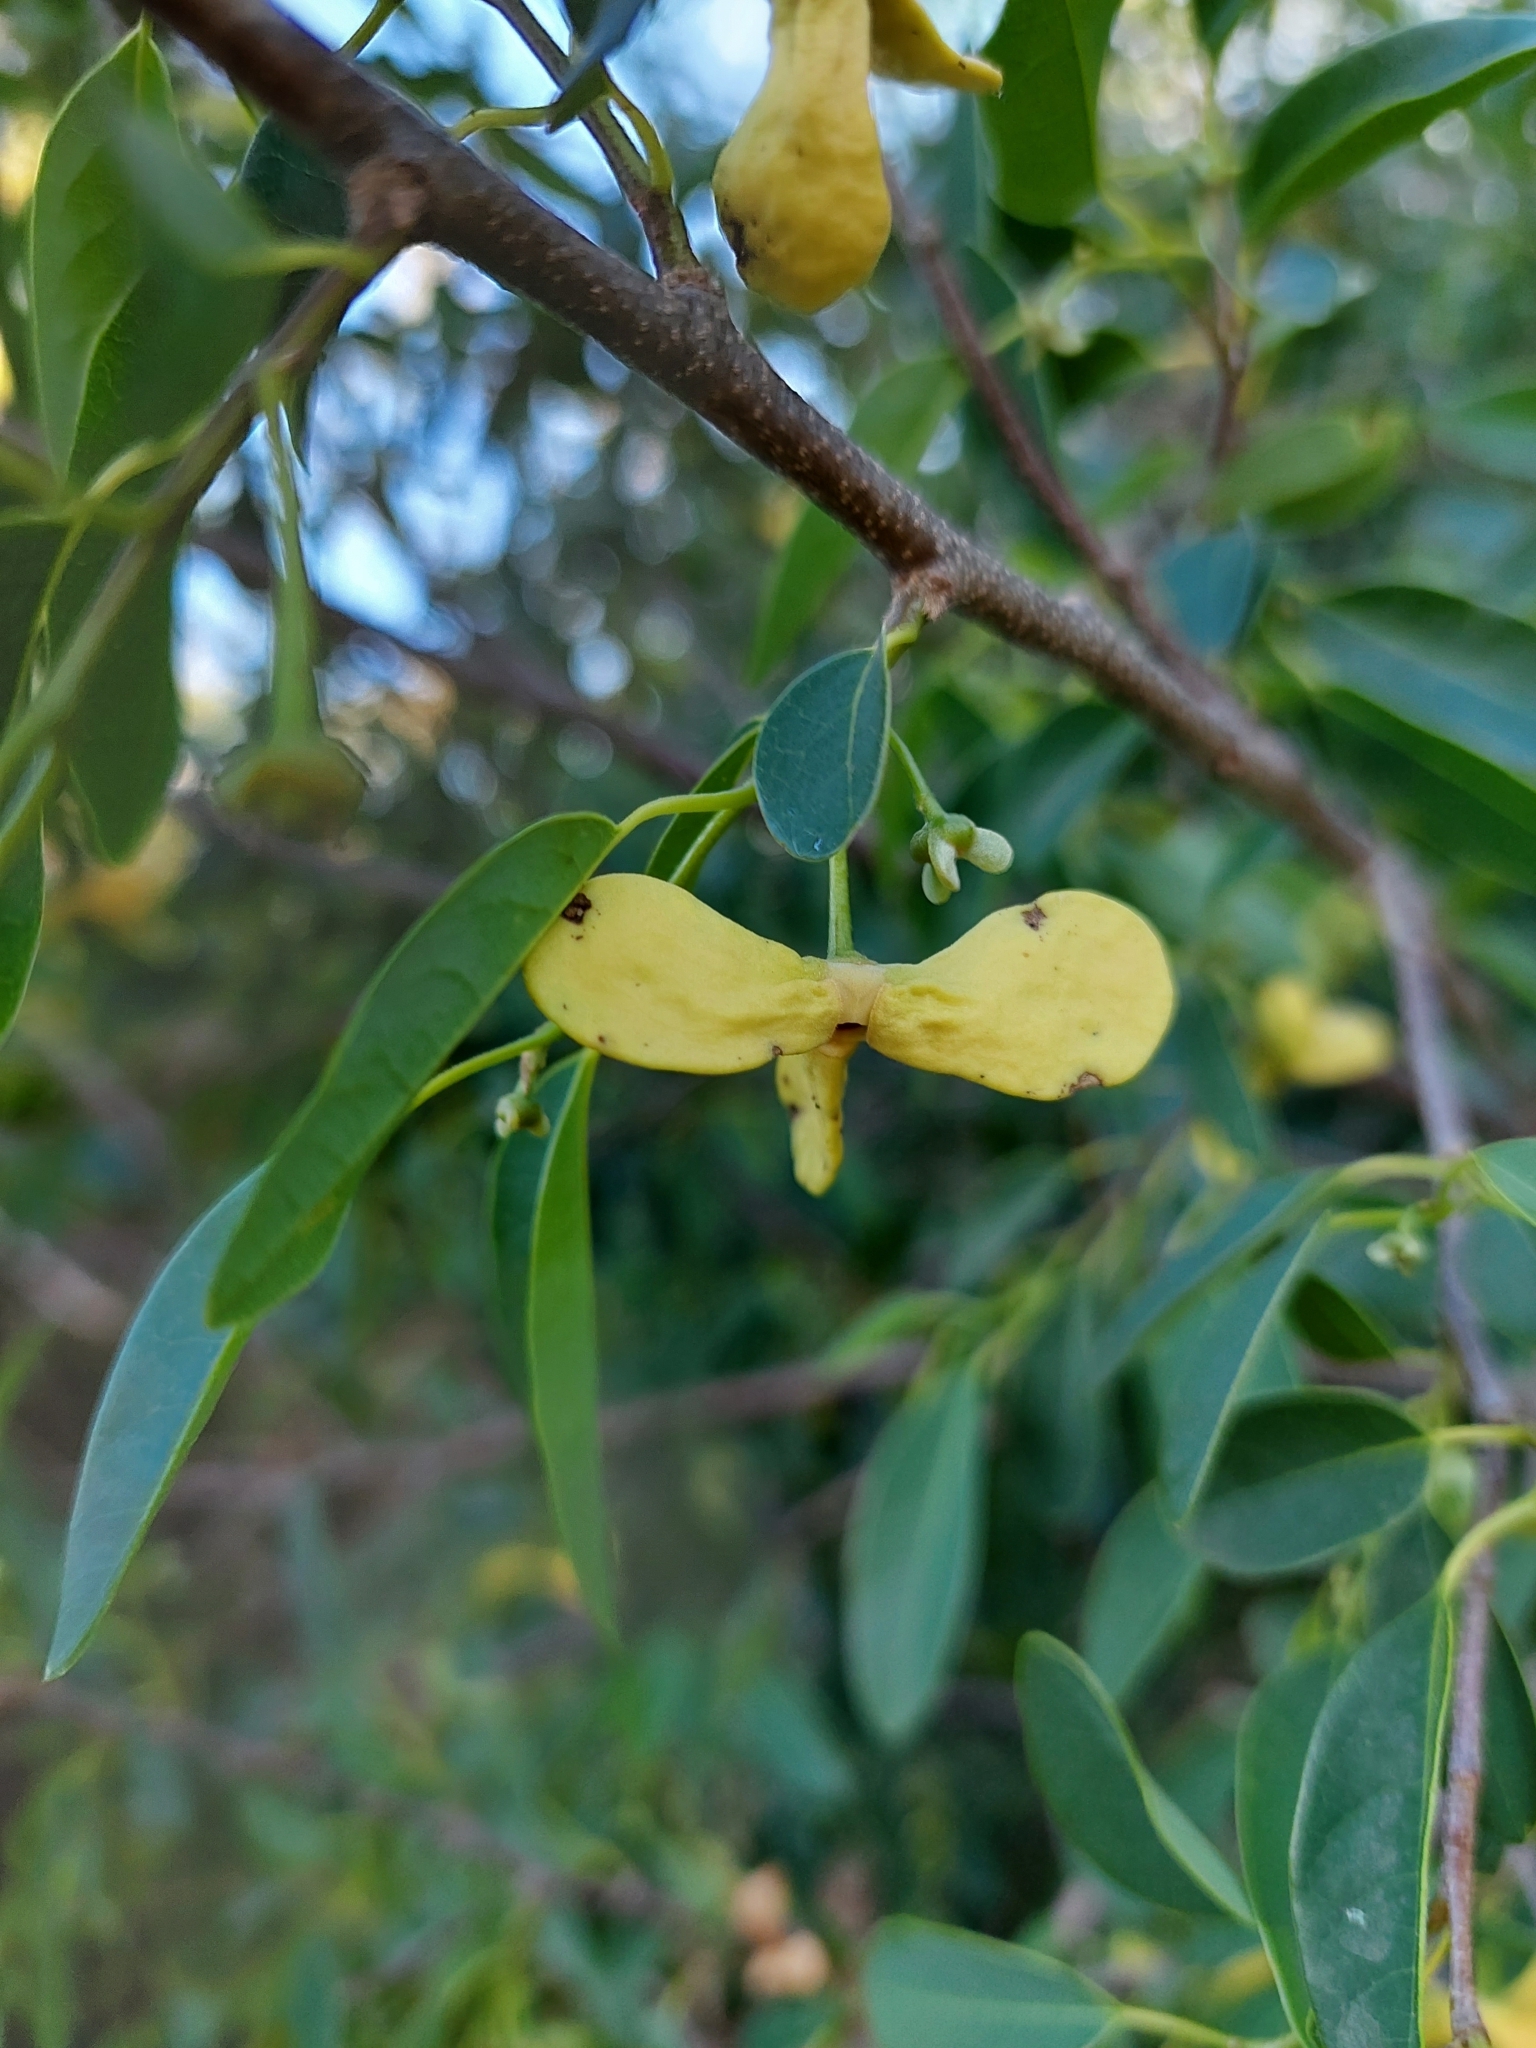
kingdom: Plantae
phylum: Tracheophyta
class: Magnoliopsida
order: Magnoliales
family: Annonaceae
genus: Annona
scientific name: Annona emarginata
